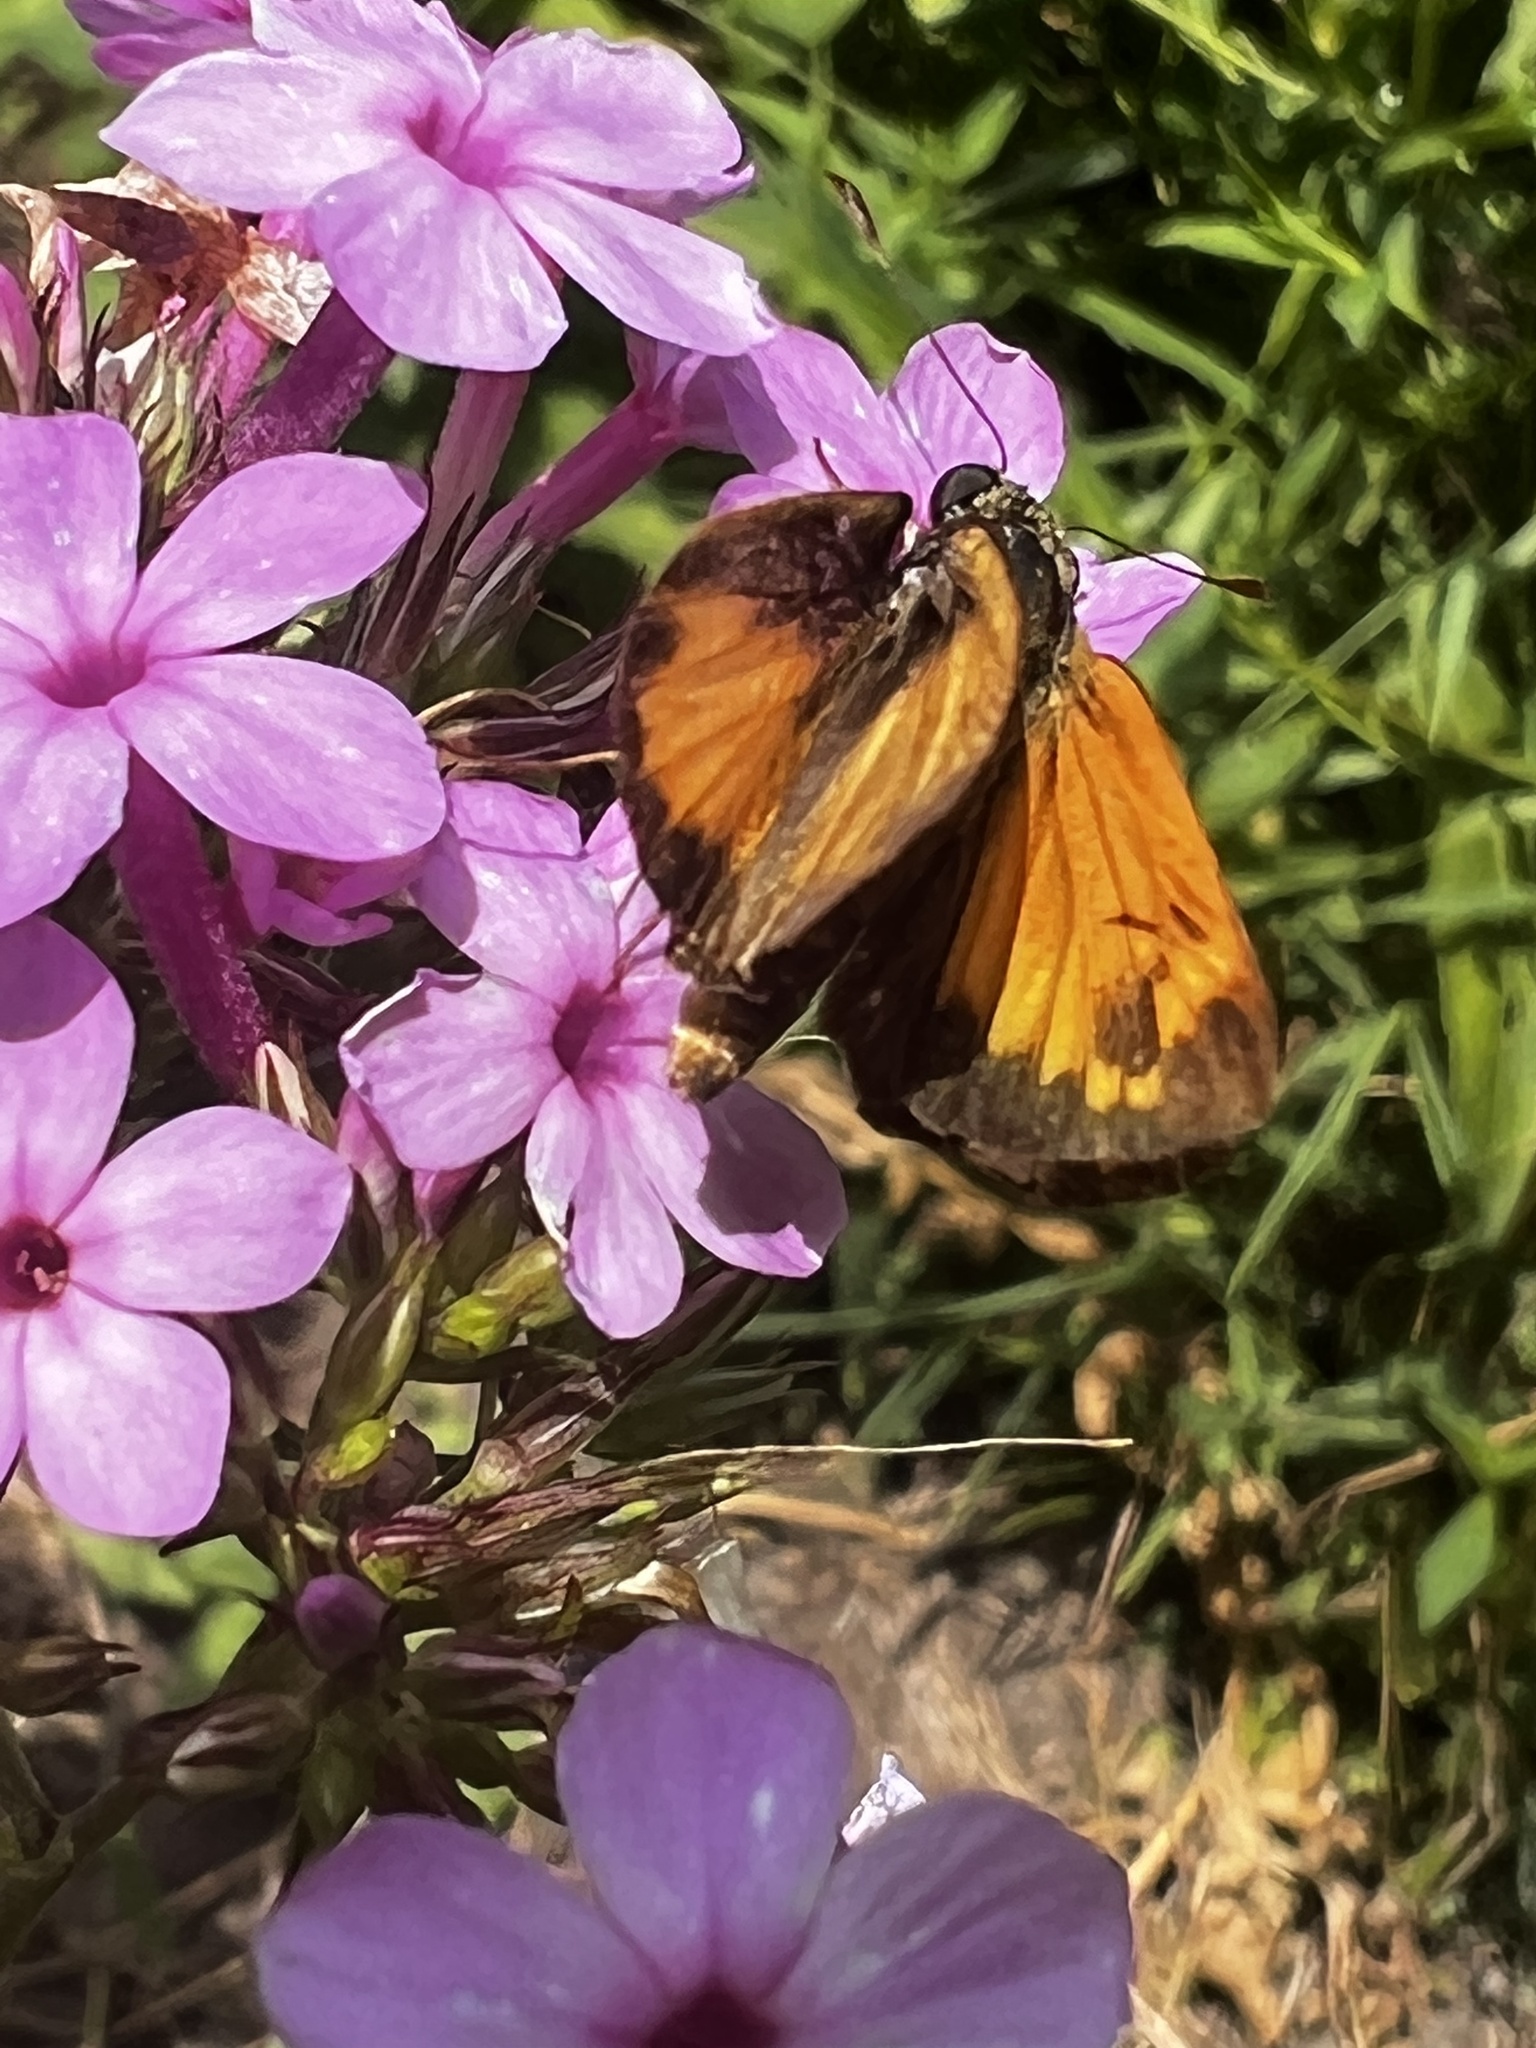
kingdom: Animalia
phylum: Arthropoda
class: Insecta
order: Lepidoptera
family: Hesperiidae
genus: Lon
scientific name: Lon zabulon
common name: Zabulon skipper
